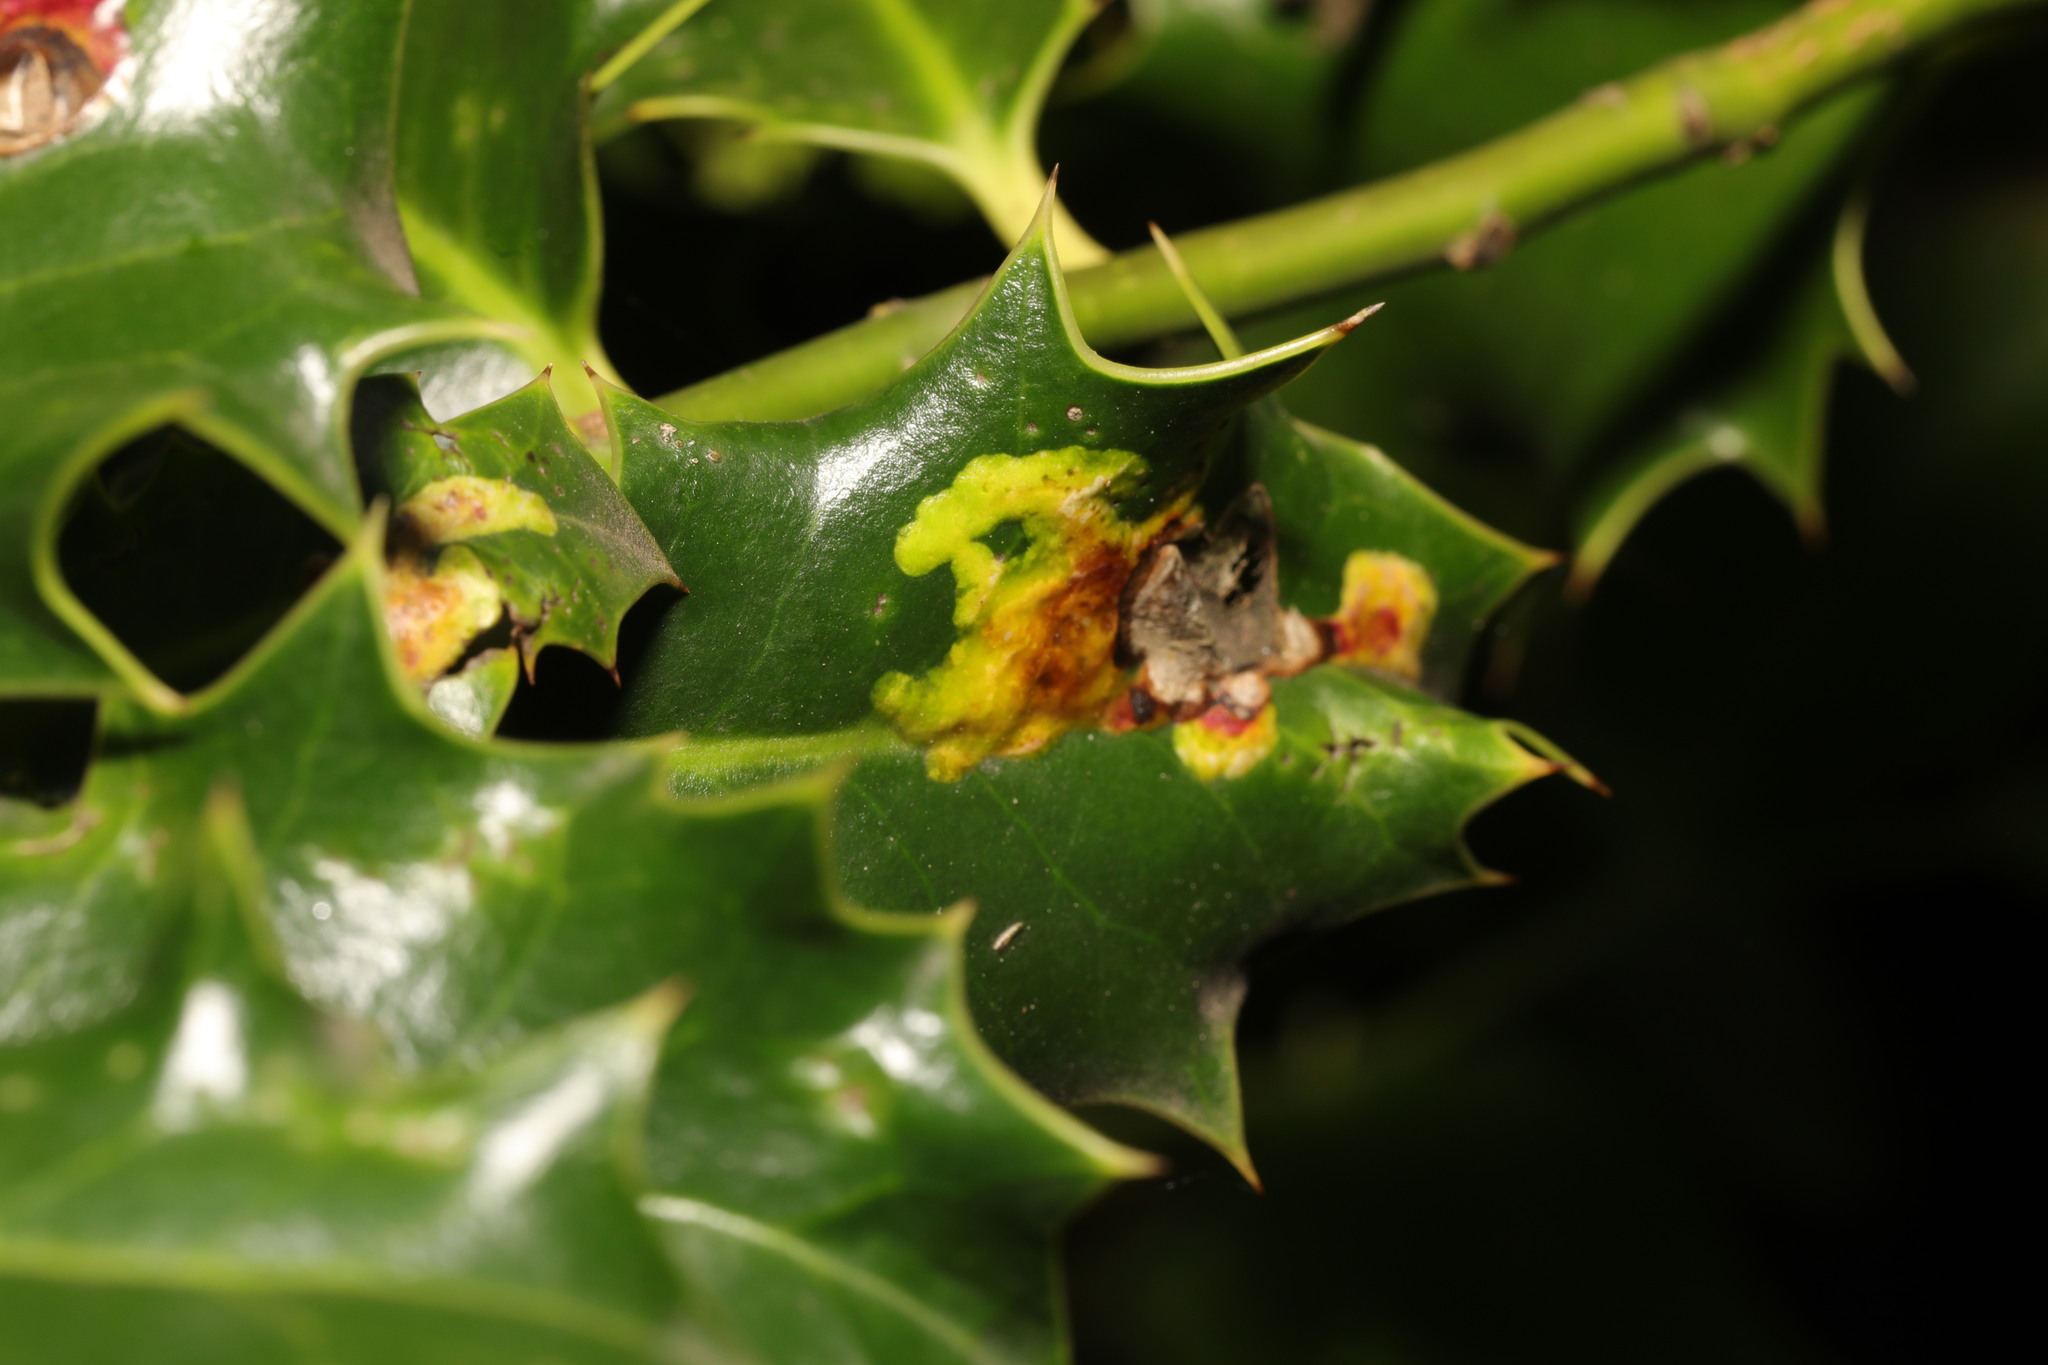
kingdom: Animalia
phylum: Arthropoda
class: Insecta
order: Diptera
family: Agromyzidae
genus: Phytomyza
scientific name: Phytomyza ilicis
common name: Holly leafminer
